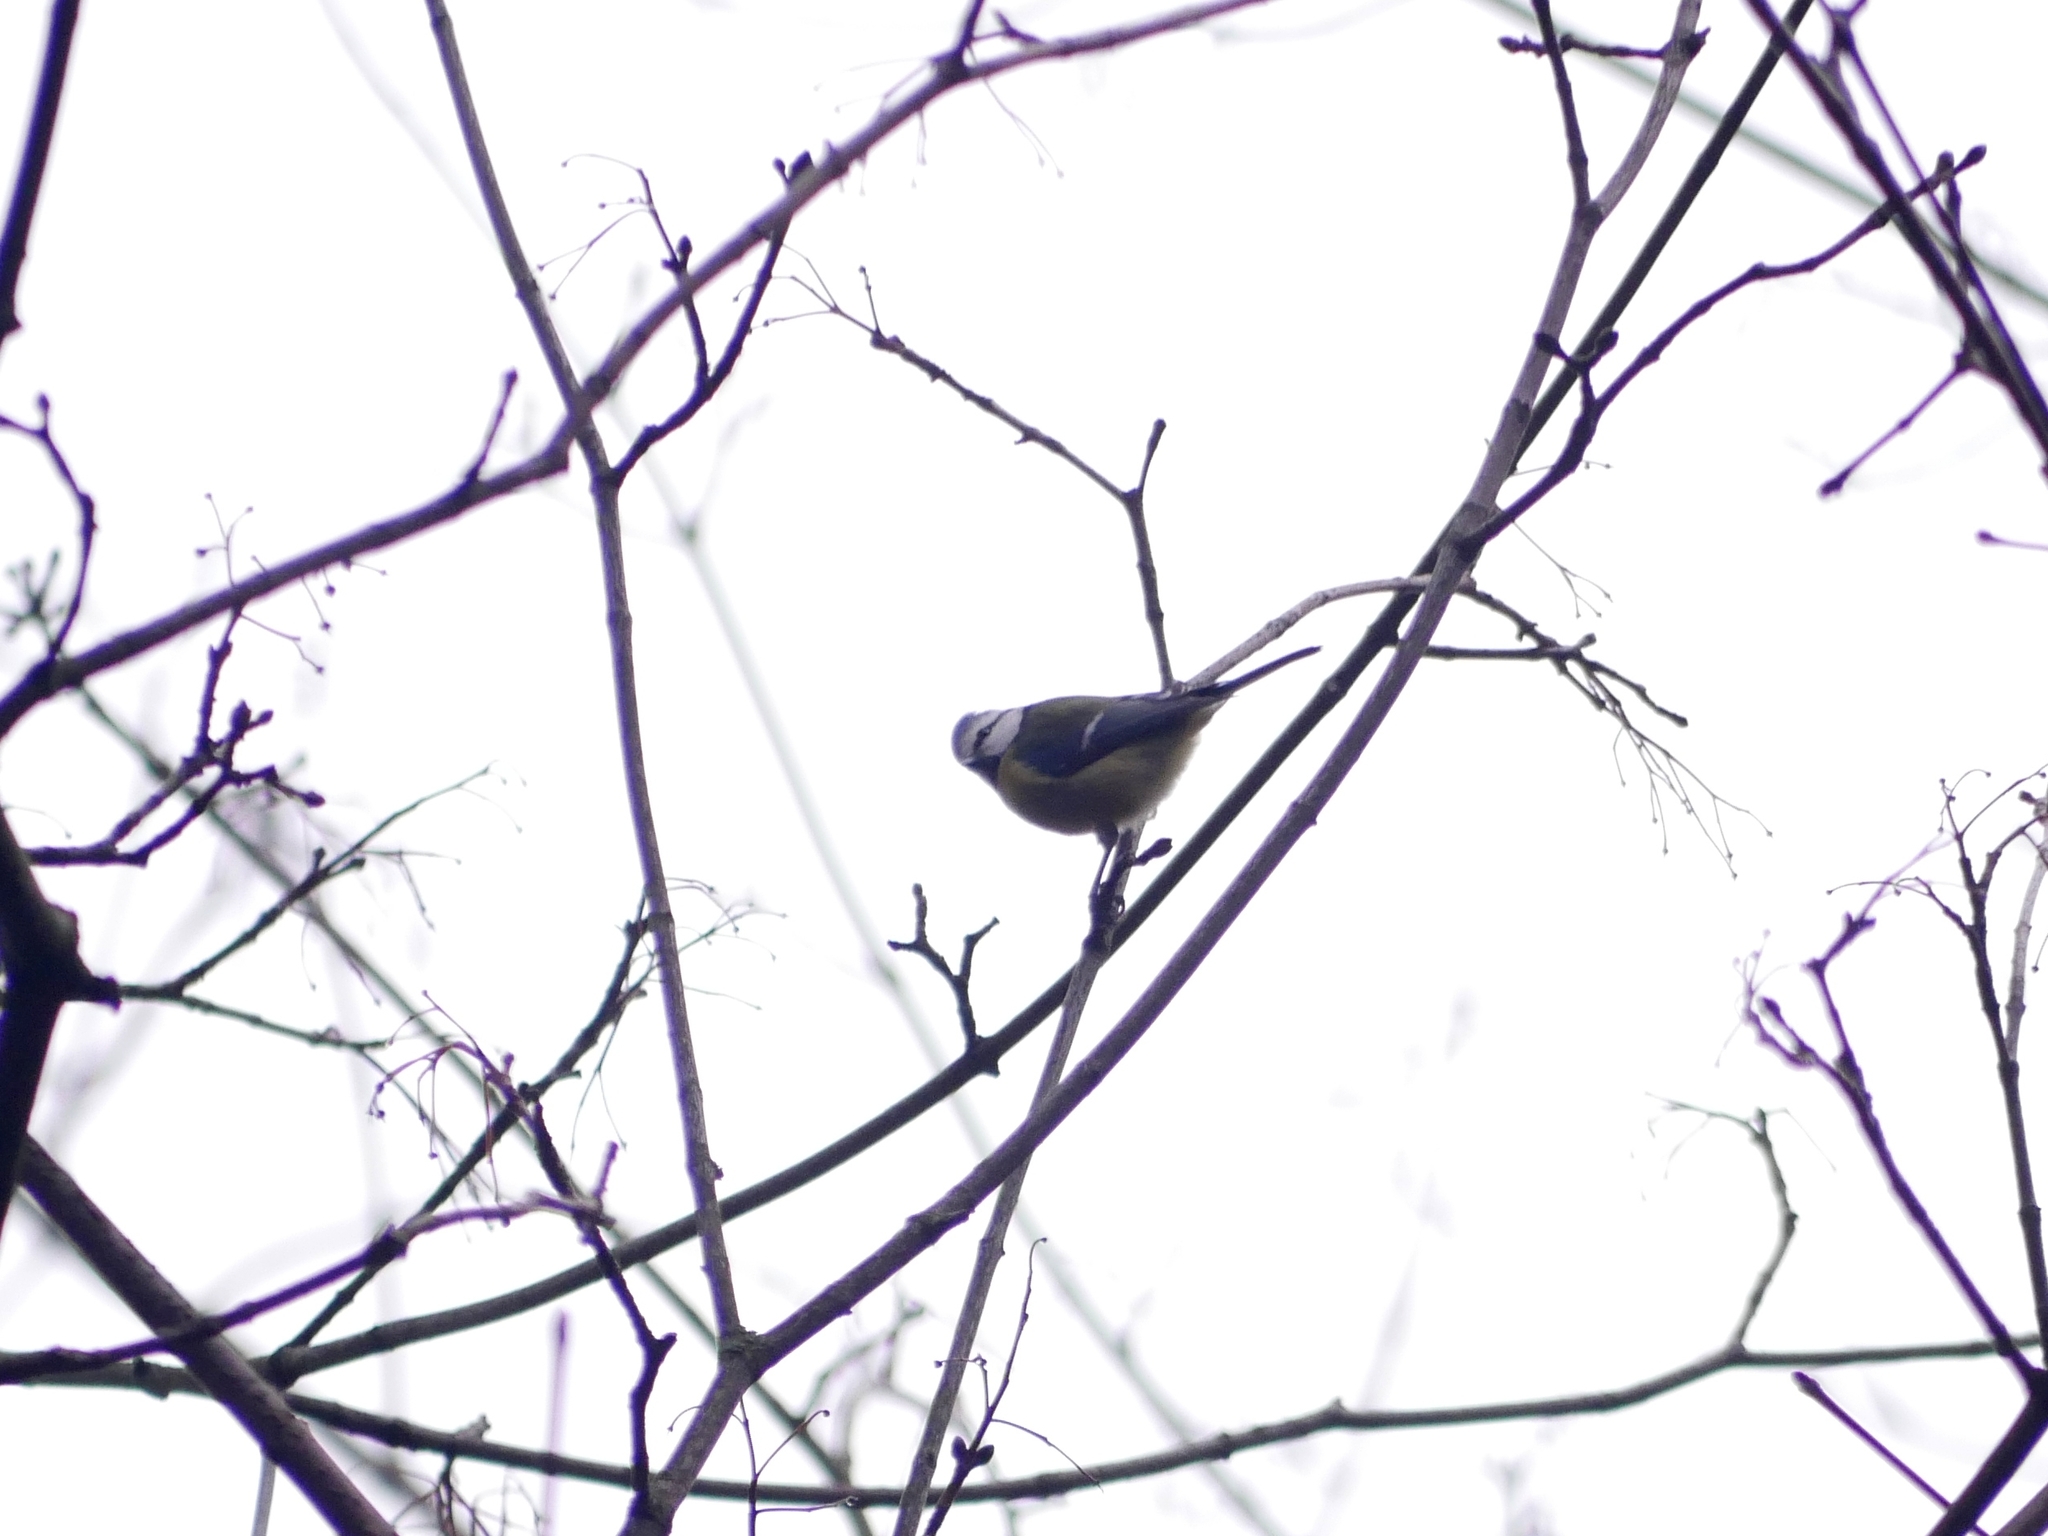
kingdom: Animalia
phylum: Chordata
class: Aves
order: Passeriformes
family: Paridae
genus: Cyanistes
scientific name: Cyanistes caeruleus
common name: Eurasian blue tit
